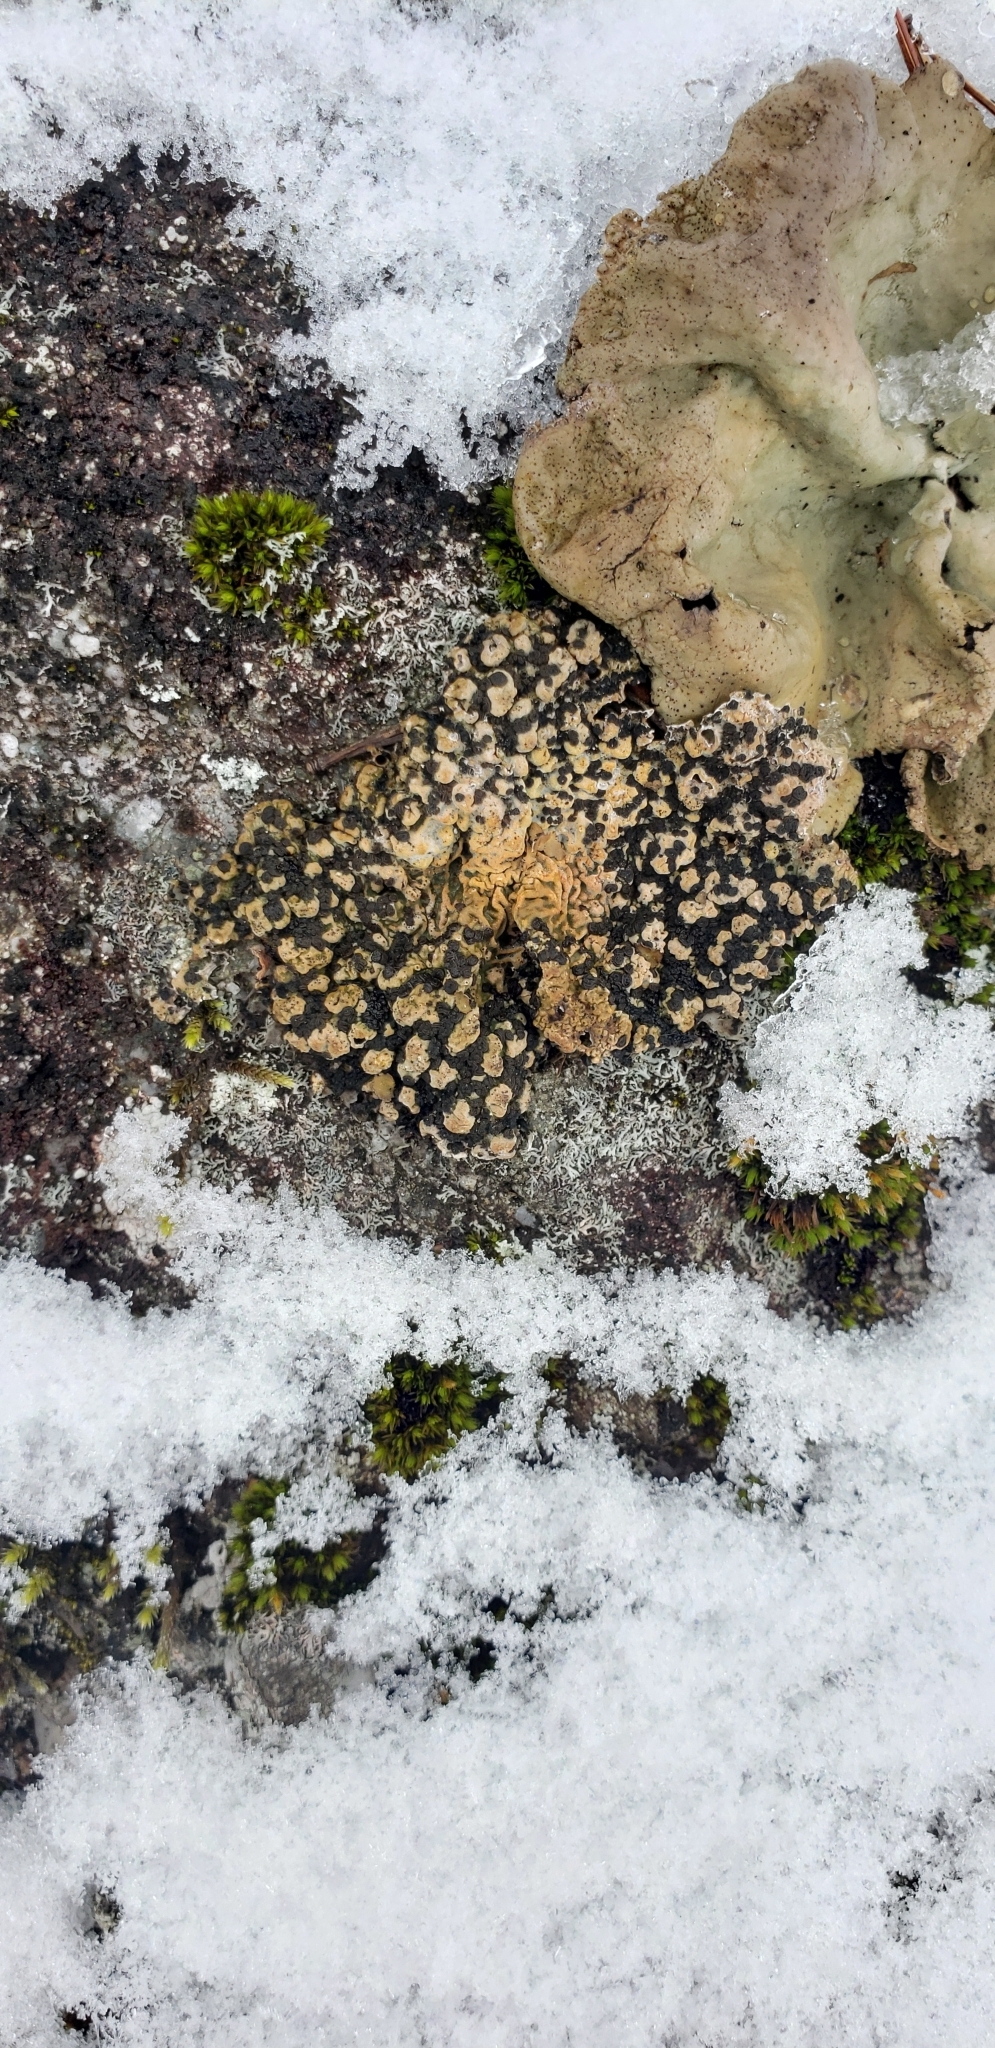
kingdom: Fungi
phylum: Ascomycota
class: Lecanoromycetes
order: Umbilicariales
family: Umbilicariaceae
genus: Lasallia
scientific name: Lasallia papulosa
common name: Common toadskin lichen
